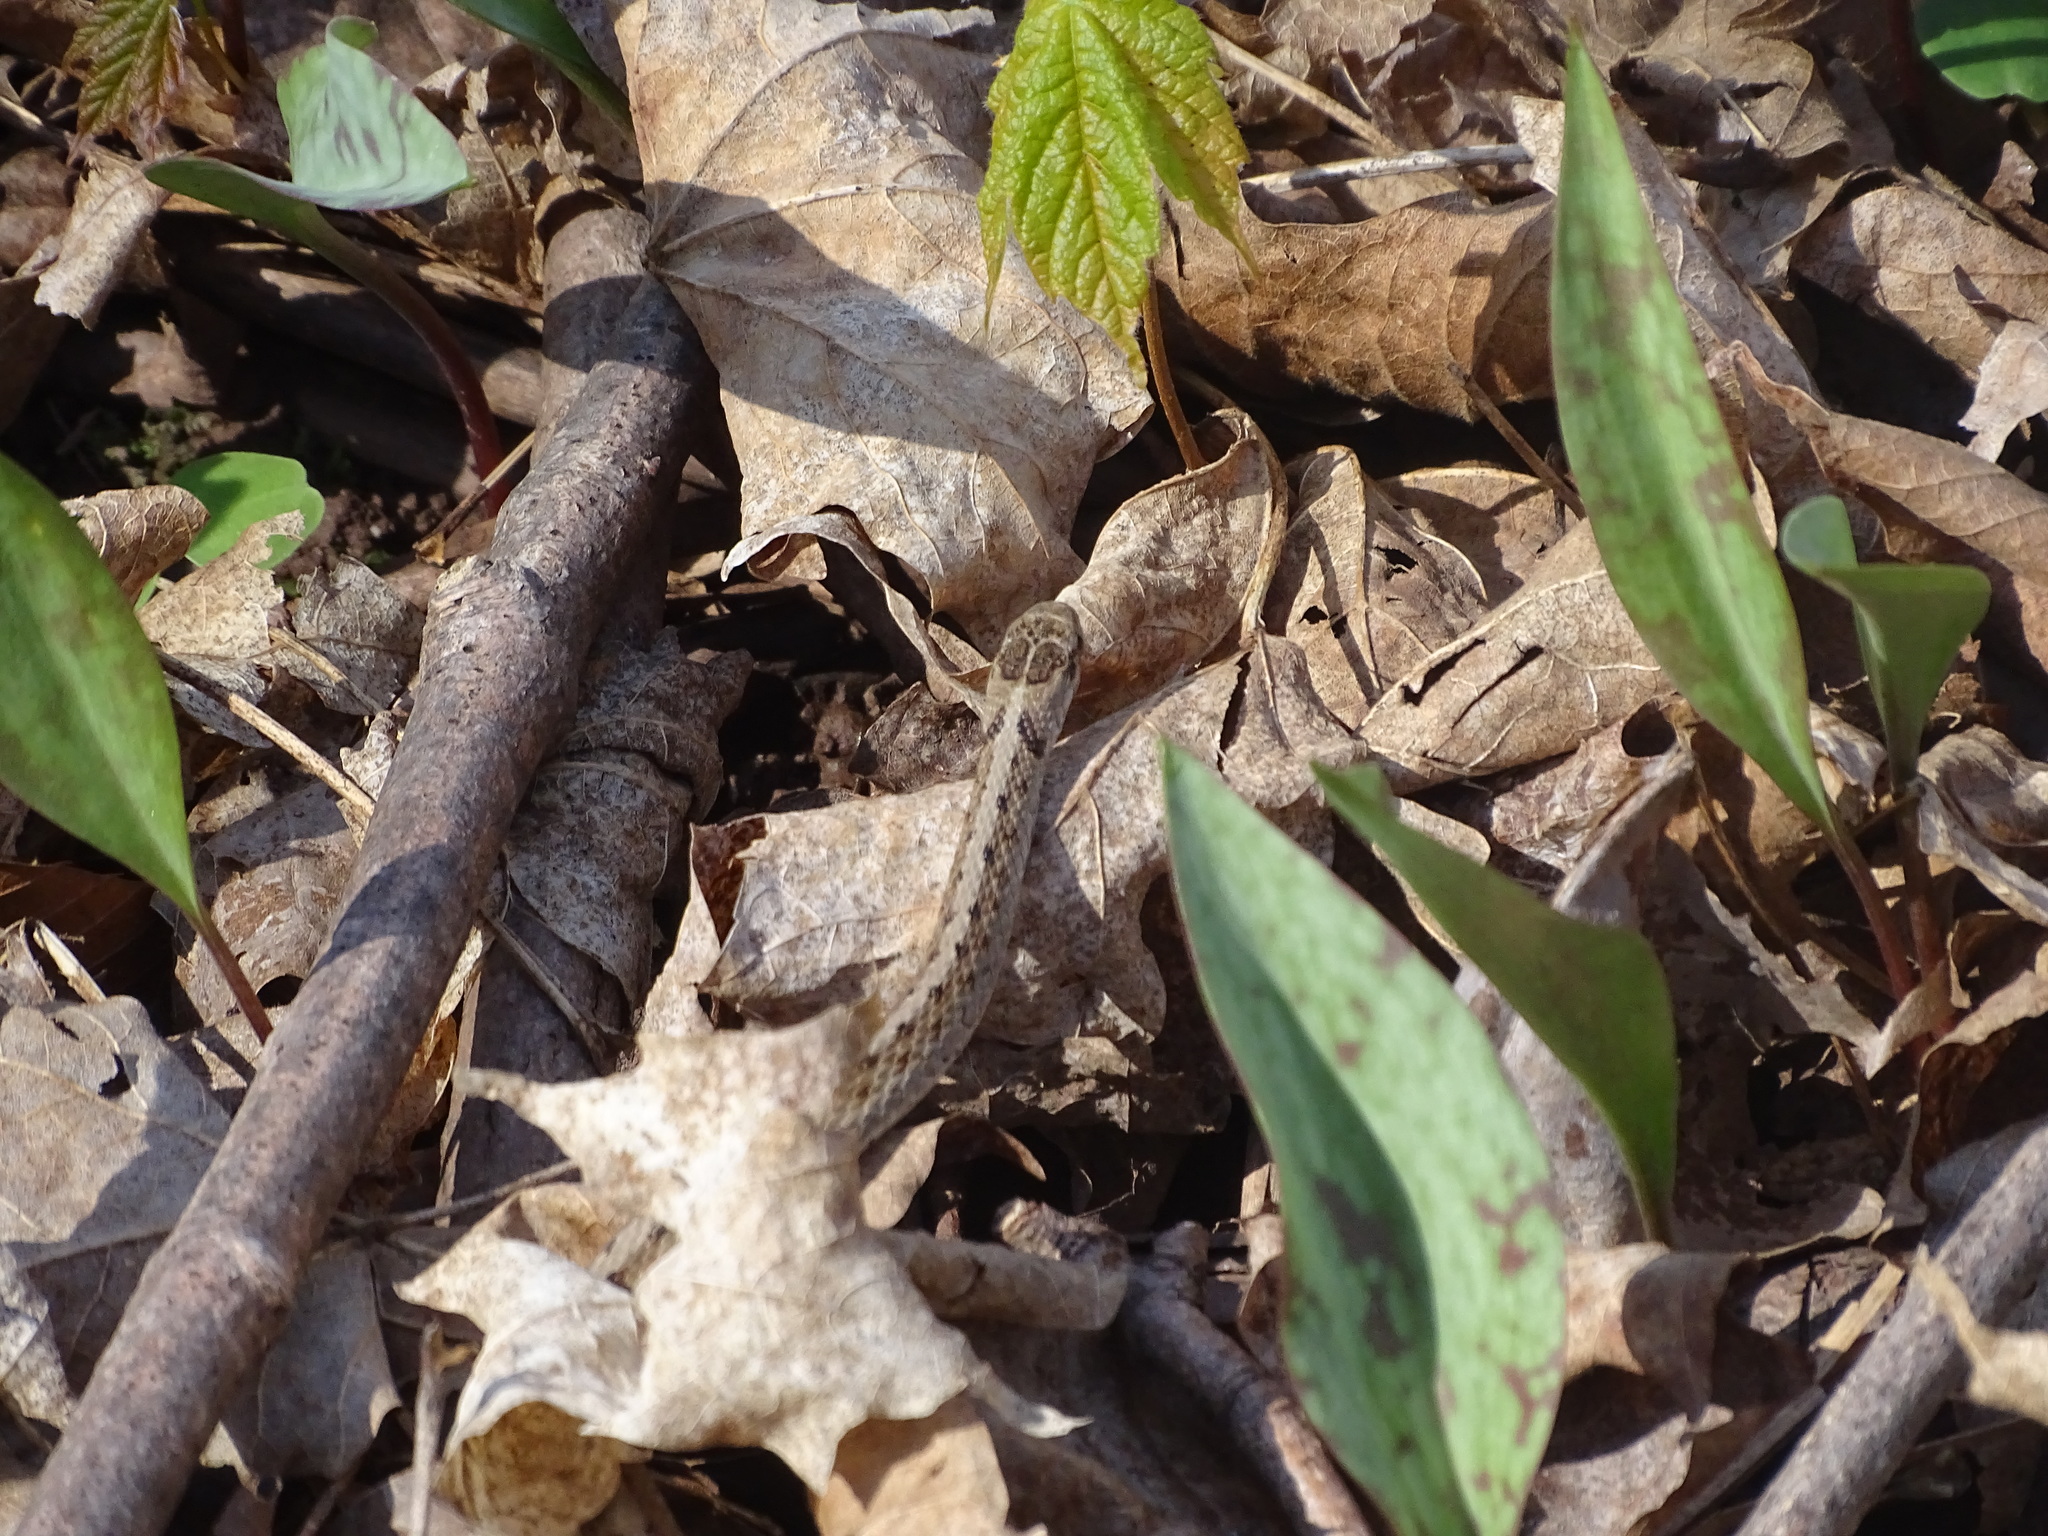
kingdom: Animalia
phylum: Chordata
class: Squamata
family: Colubridae
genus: Storeria
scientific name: Storeria dekayi
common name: (dekay’s) brown snake
